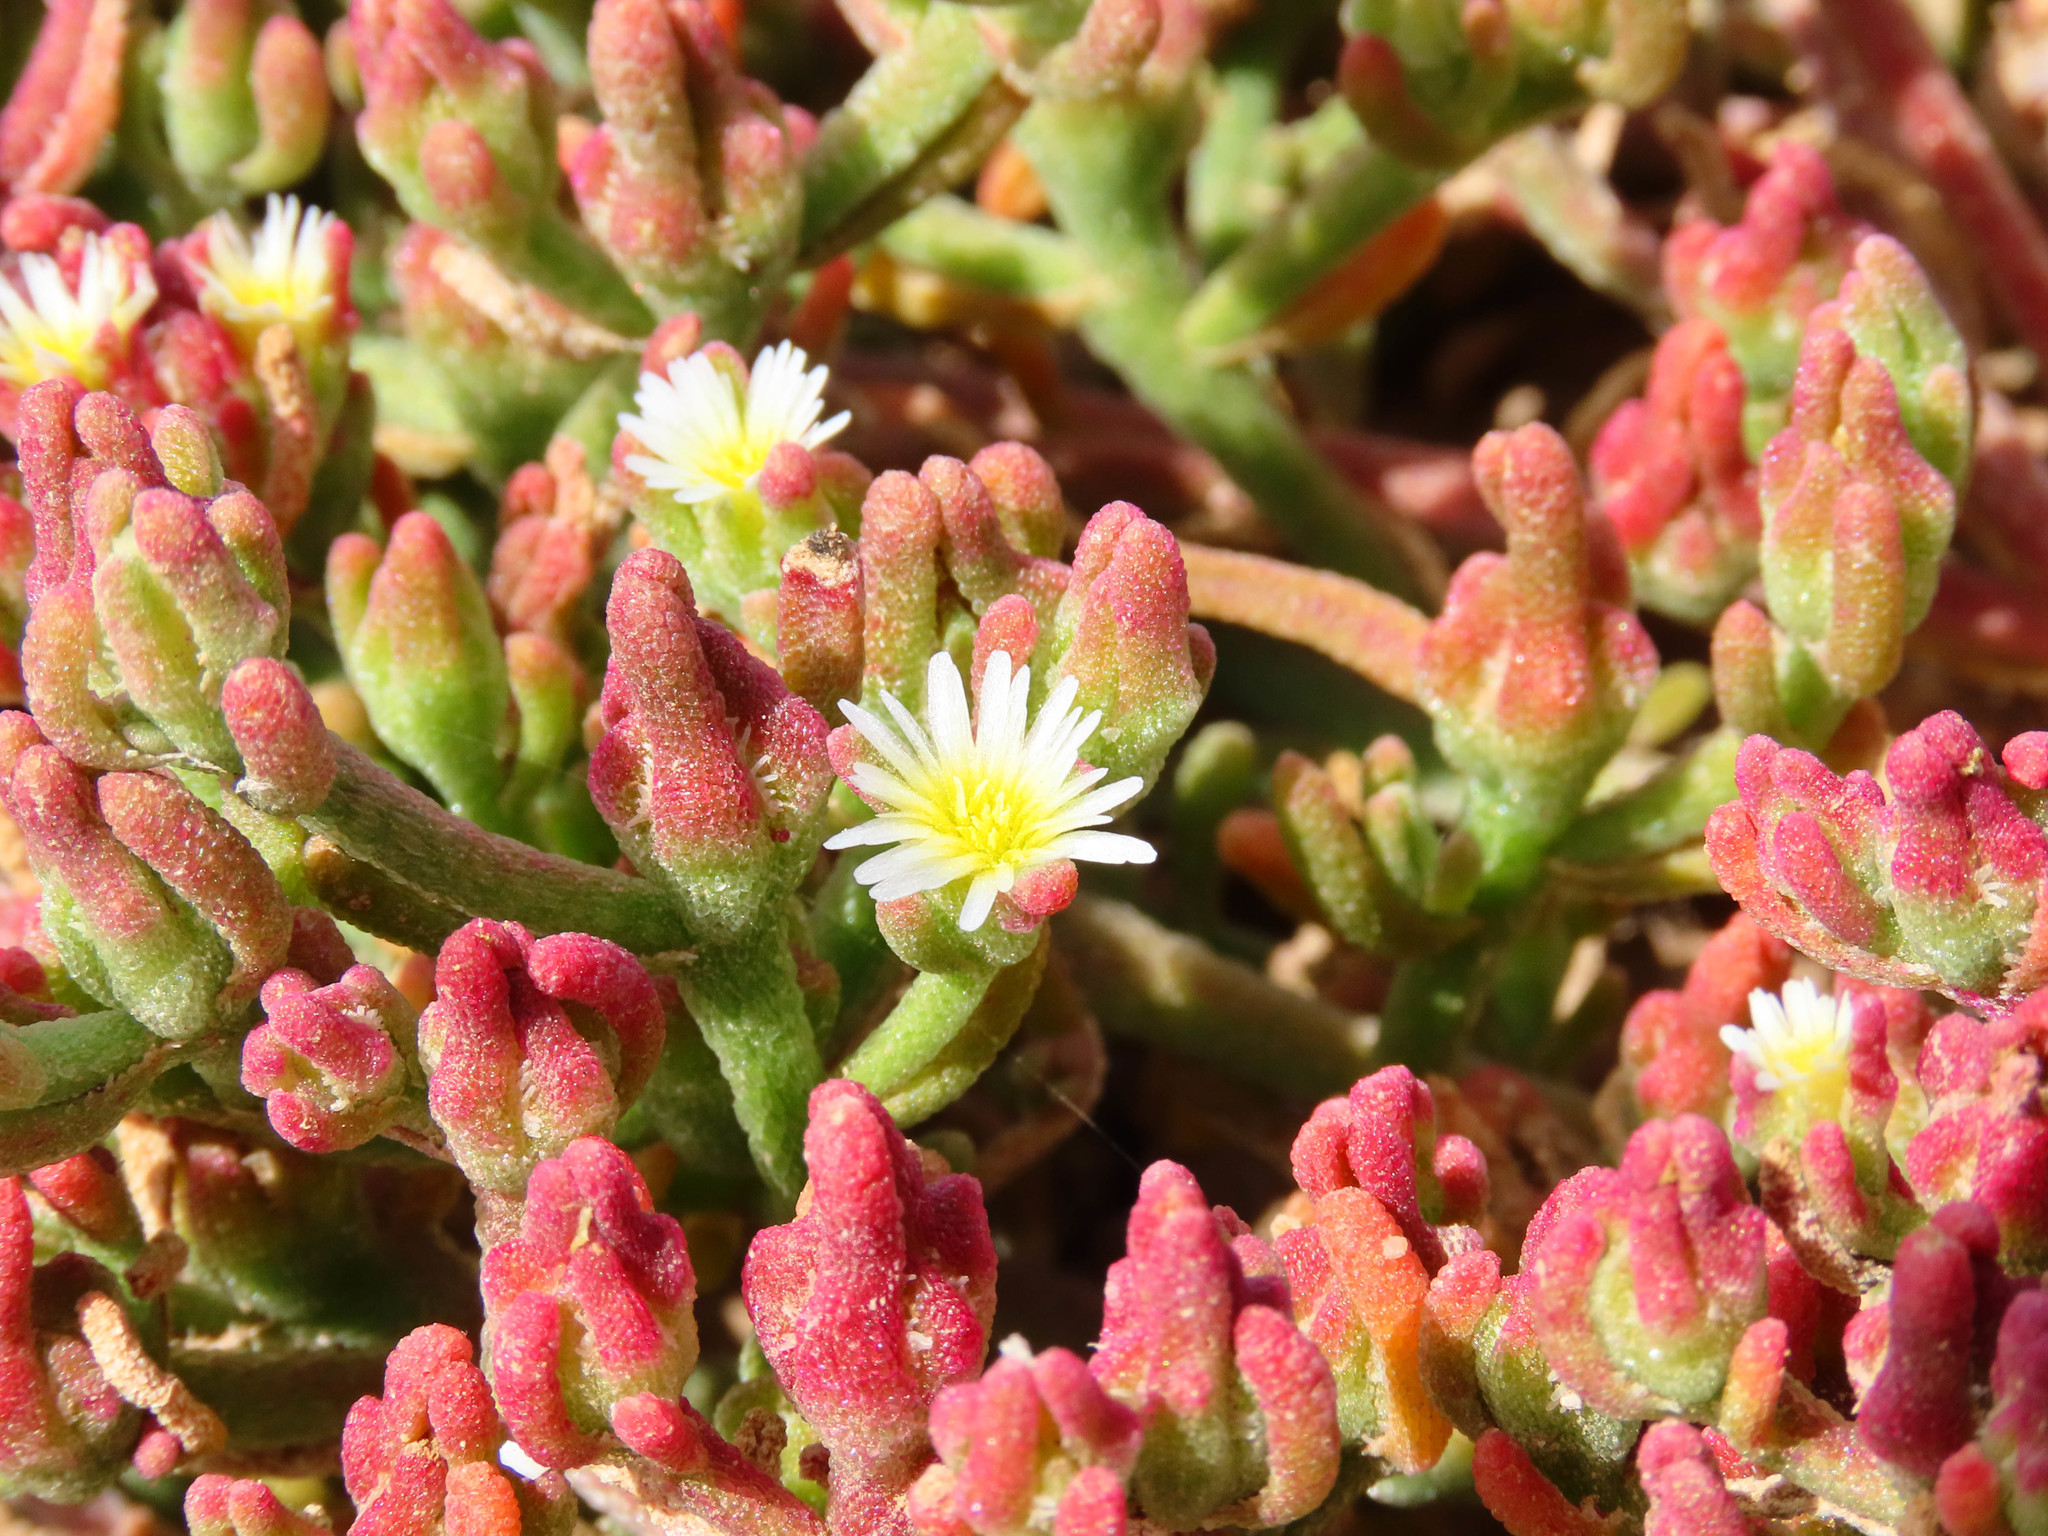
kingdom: Plantae
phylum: Tracheophyta
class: Magnoliopsida
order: Caryophyllales
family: Aizoaceae
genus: Mesembryanthemum
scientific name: Mesembryanthemum nodiflorum
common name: Slenderleaf iceplant
